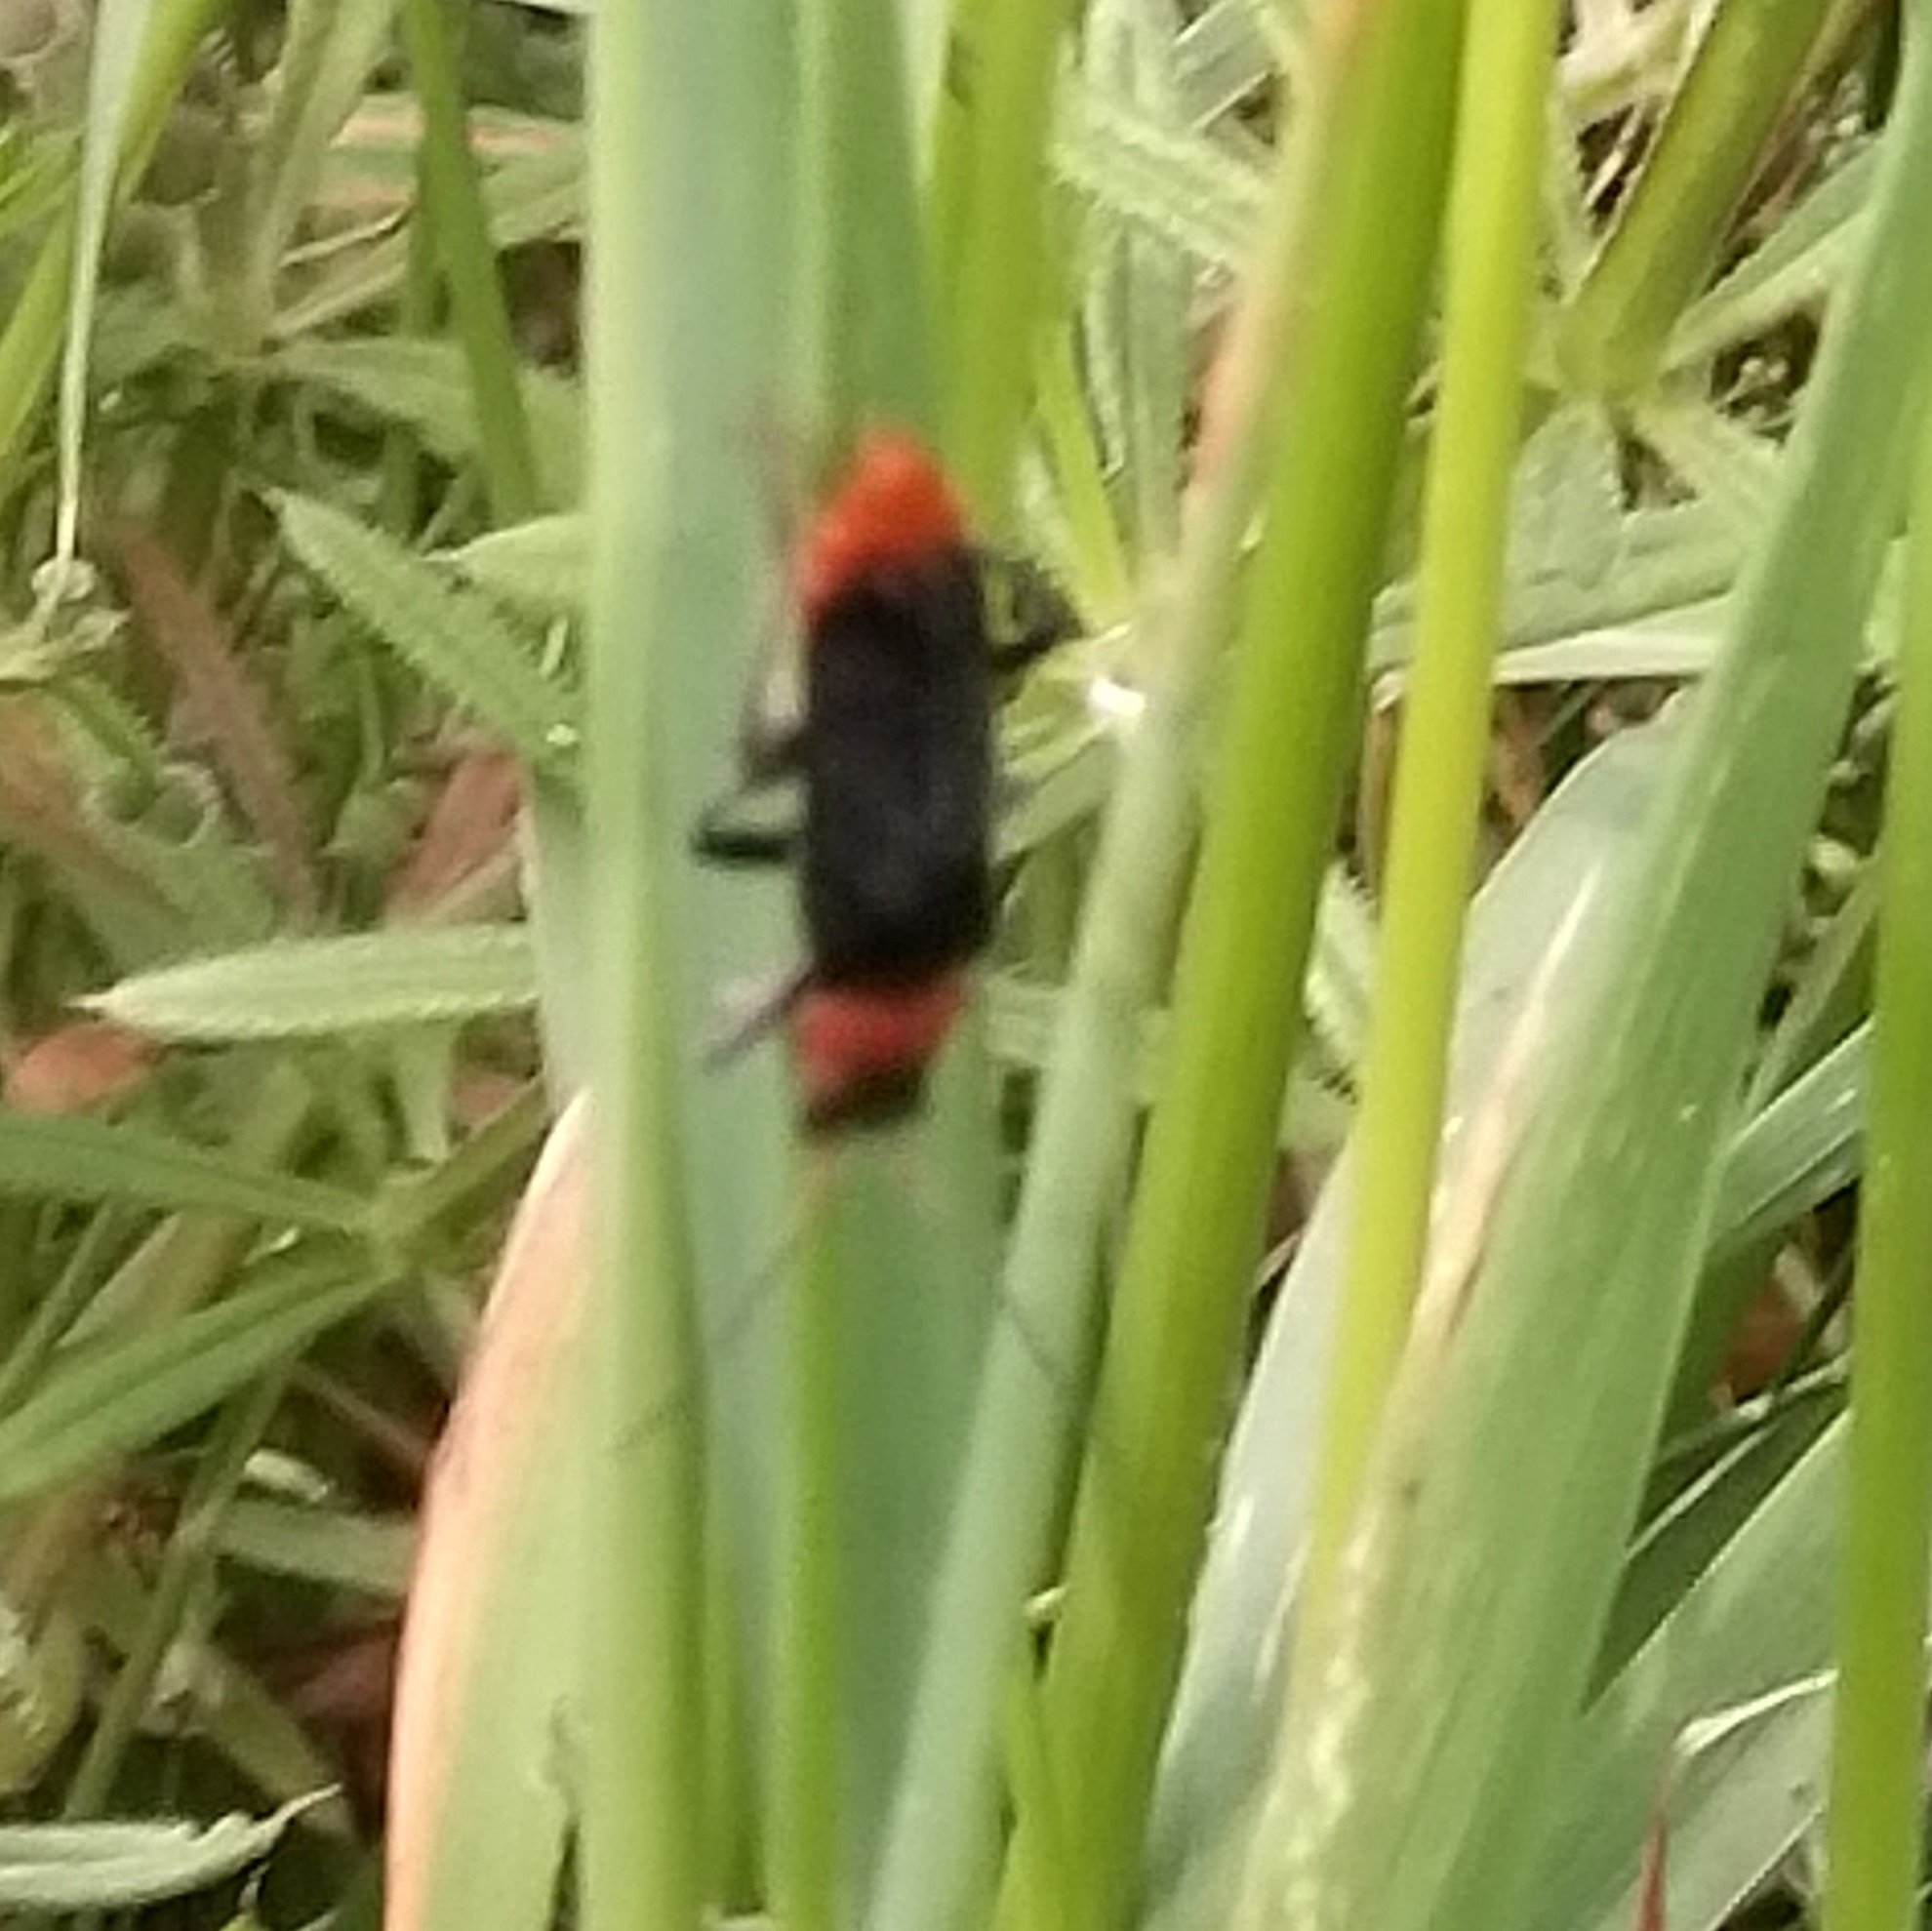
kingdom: Animalia
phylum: Arthropoda
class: Insecta
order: Coleoptera
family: Cantharidae
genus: Cantharis
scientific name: Cantharis fusca
